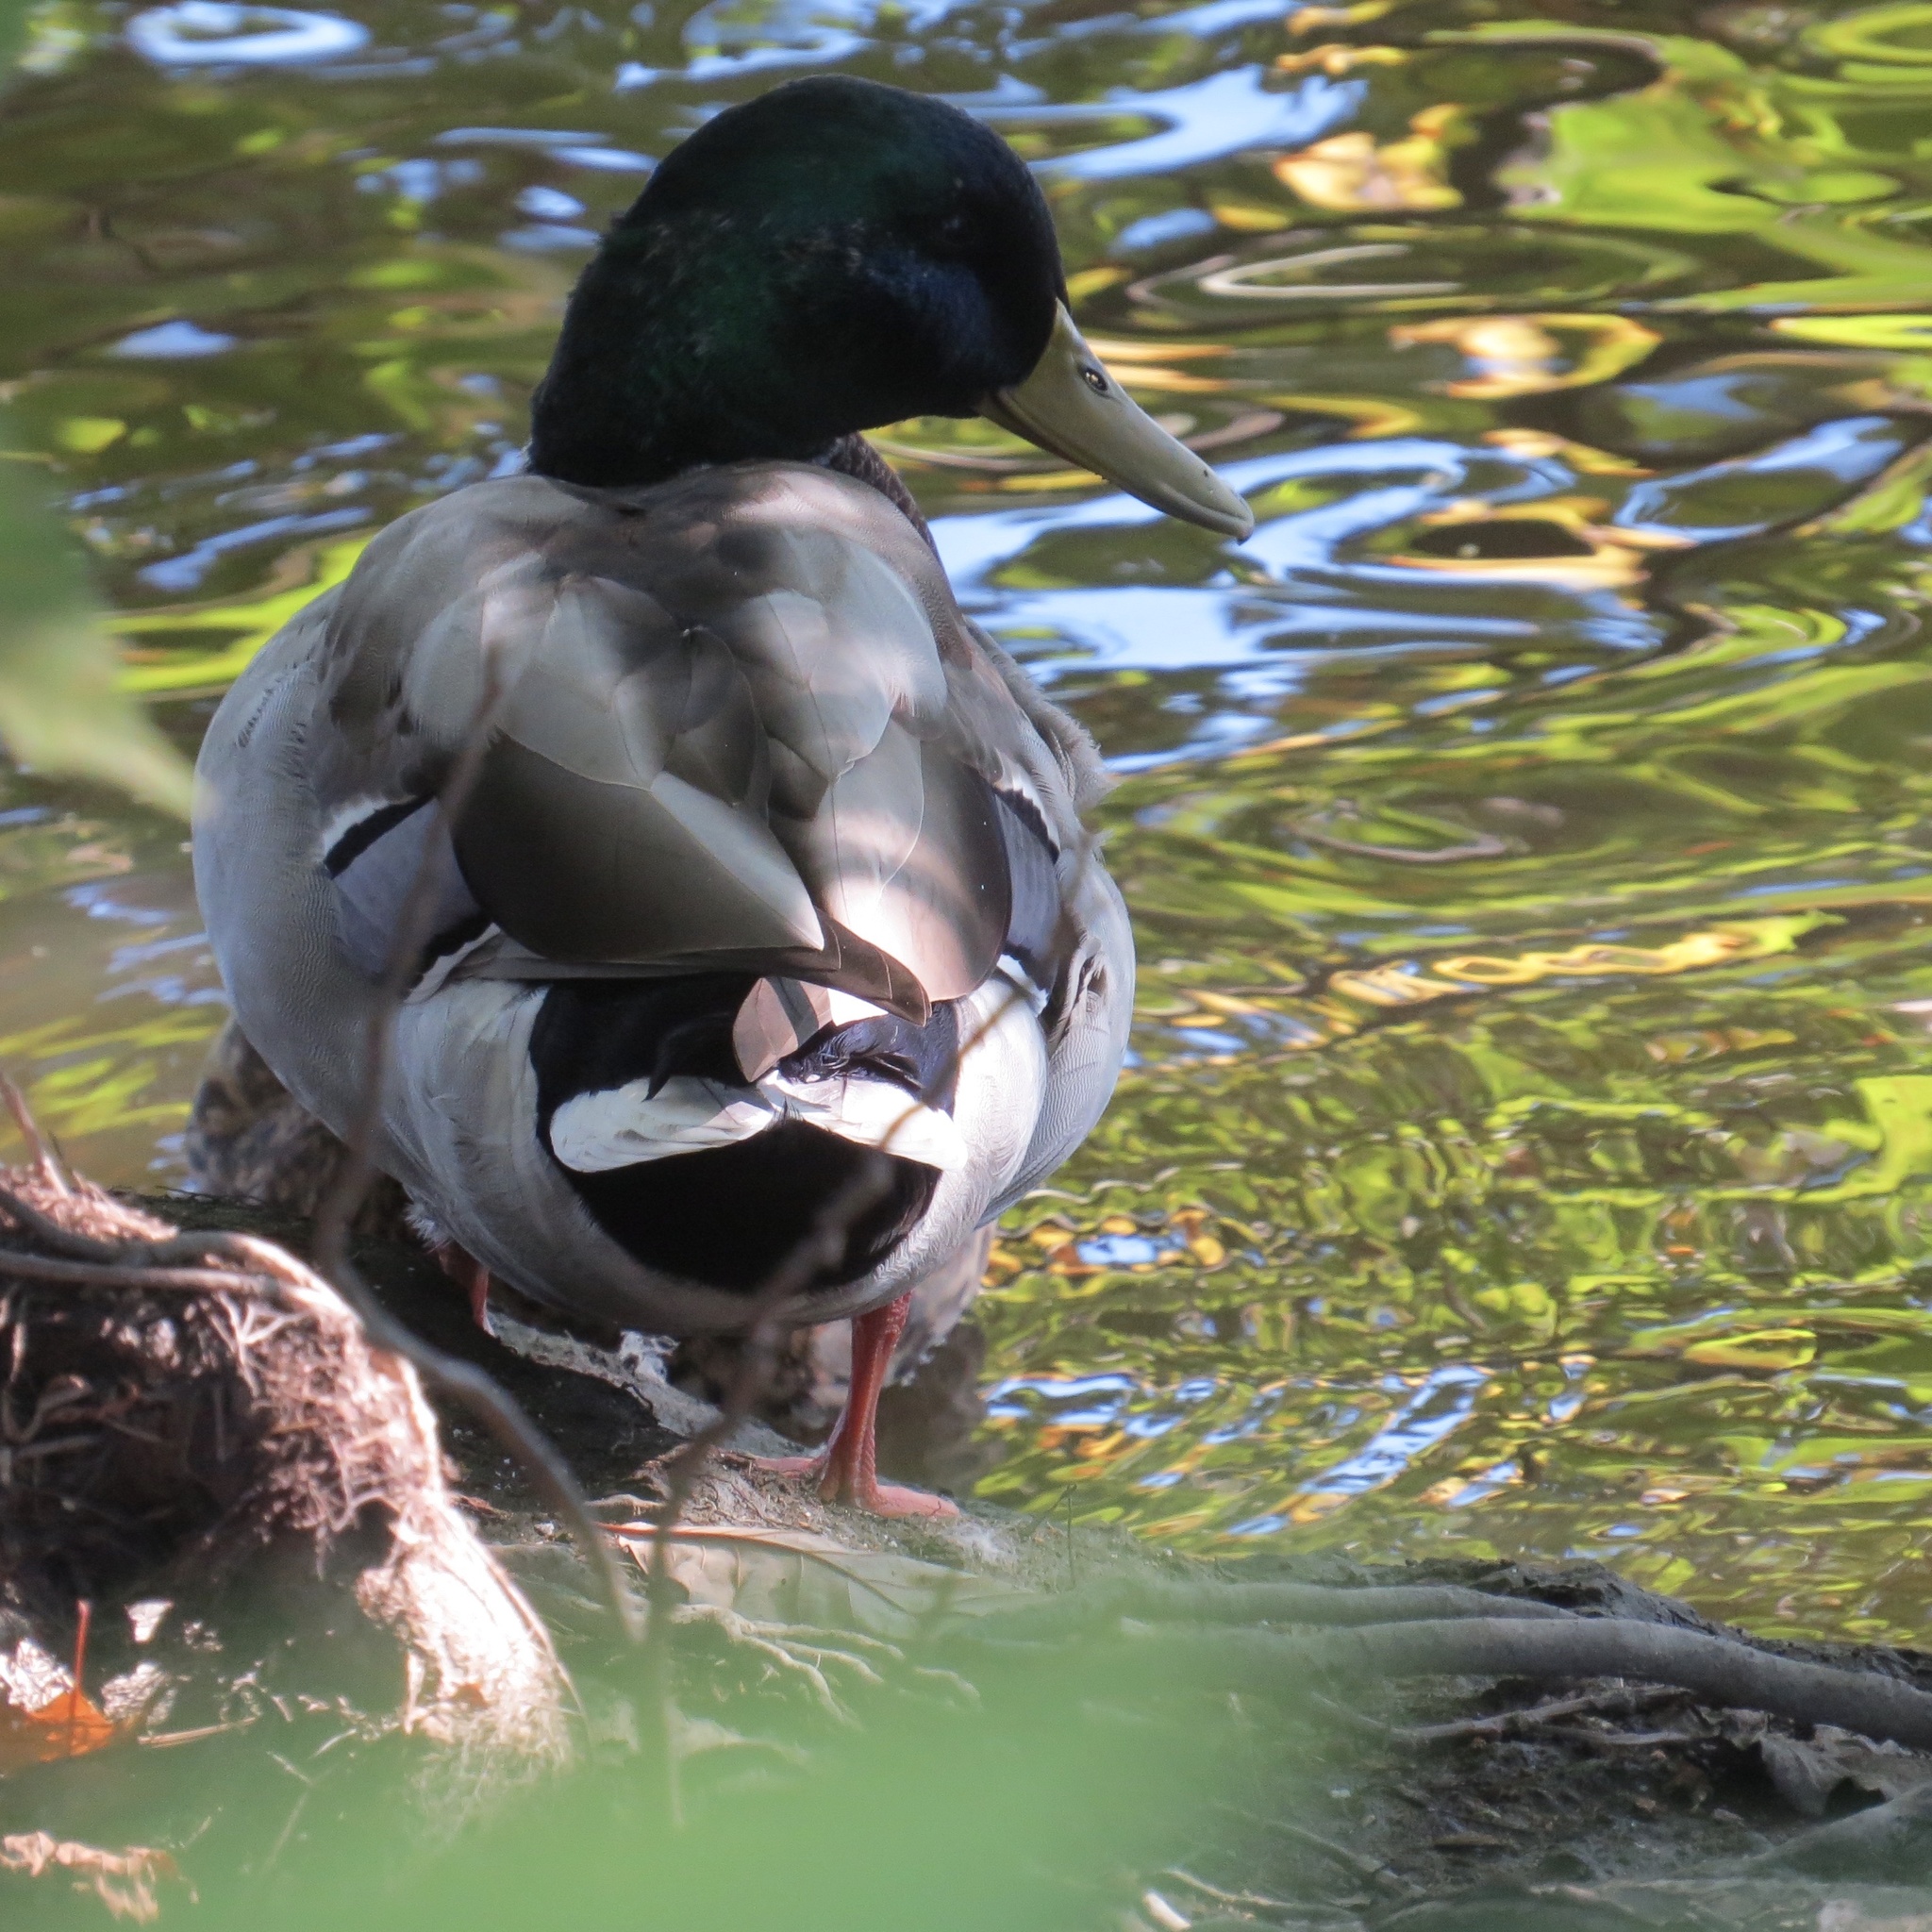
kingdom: Animalia
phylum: Chordata
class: Aves
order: Anseriformes
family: Anatidae
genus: Anas
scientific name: Anas platyrhynchos
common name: Mallard
